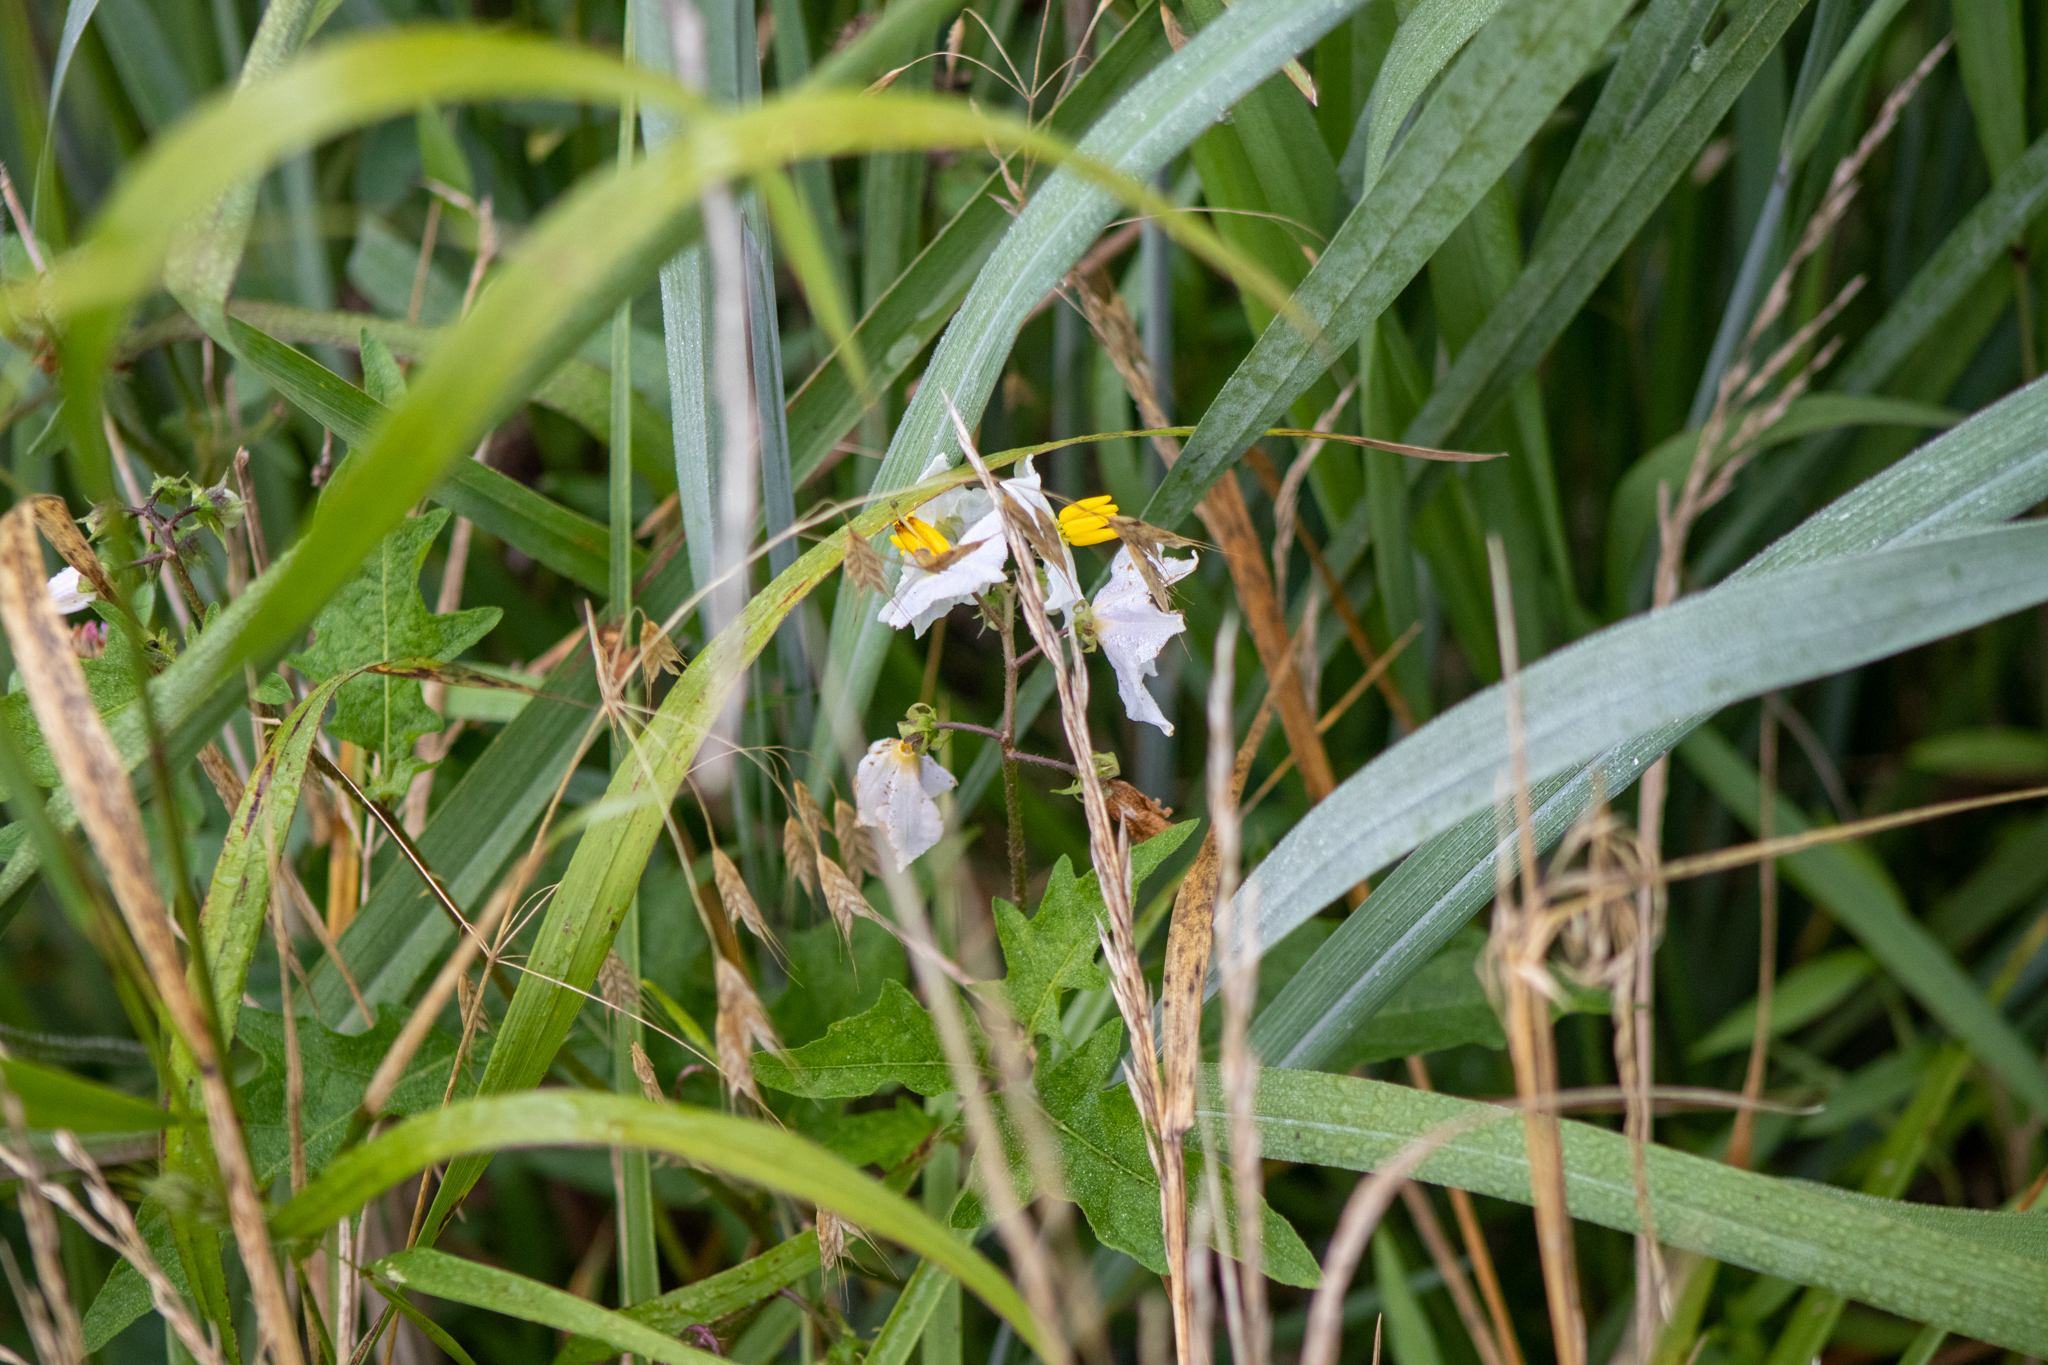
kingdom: Plantae
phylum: Tracheophyta
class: Magnoliopsida
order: Solanales
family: Solanaceae
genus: Solanum
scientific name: Solanum carolinense
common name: Horse-nettle
